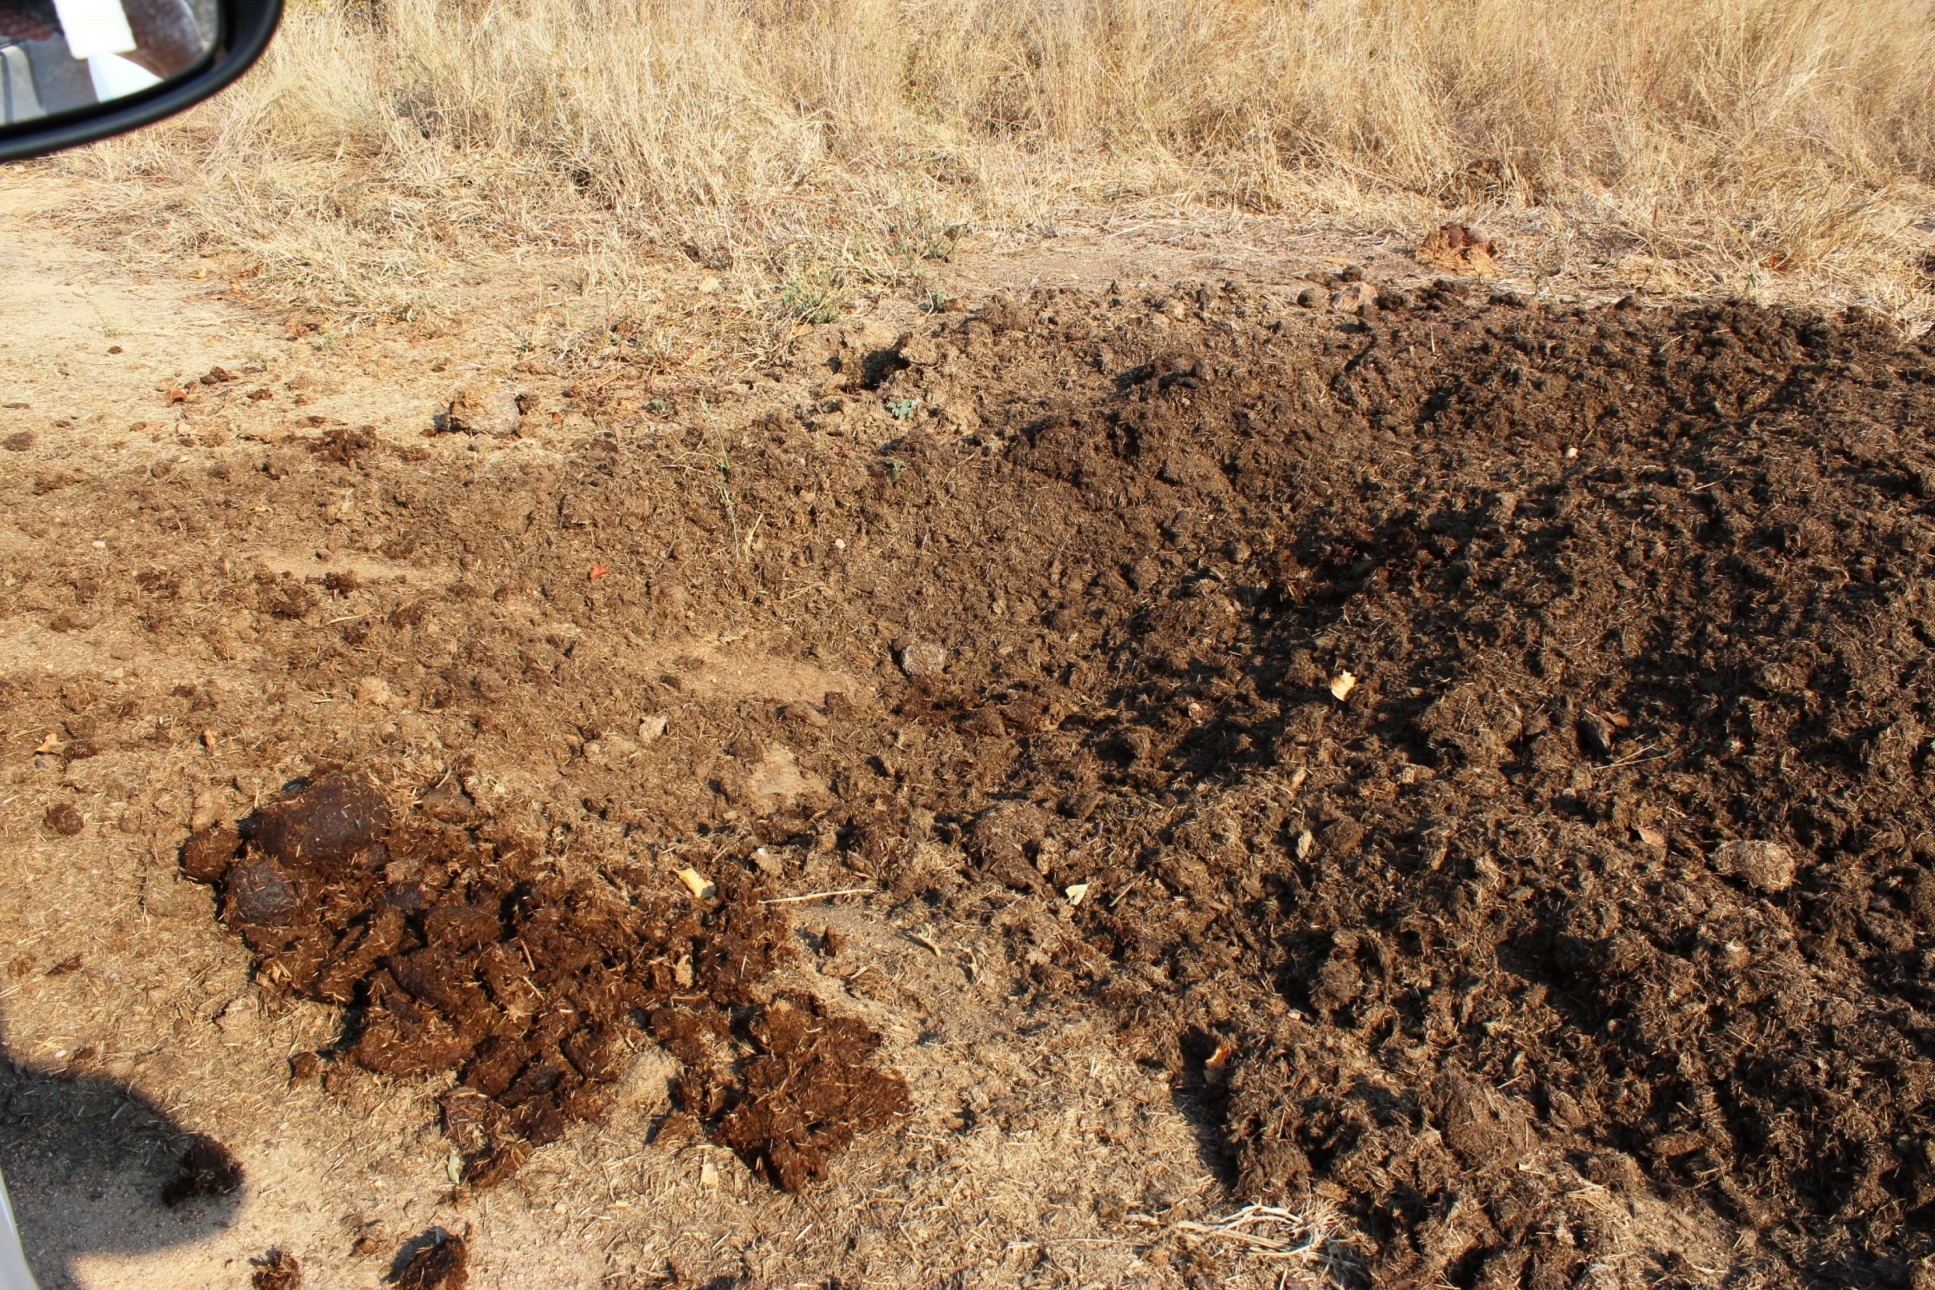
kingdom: Animalia
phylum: Chordata
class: Mammalia
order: Perissodactyla
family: Rhinocerotidae
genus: Ceratotherium
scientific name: Ceratotherium simum
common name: White rhinoceros
